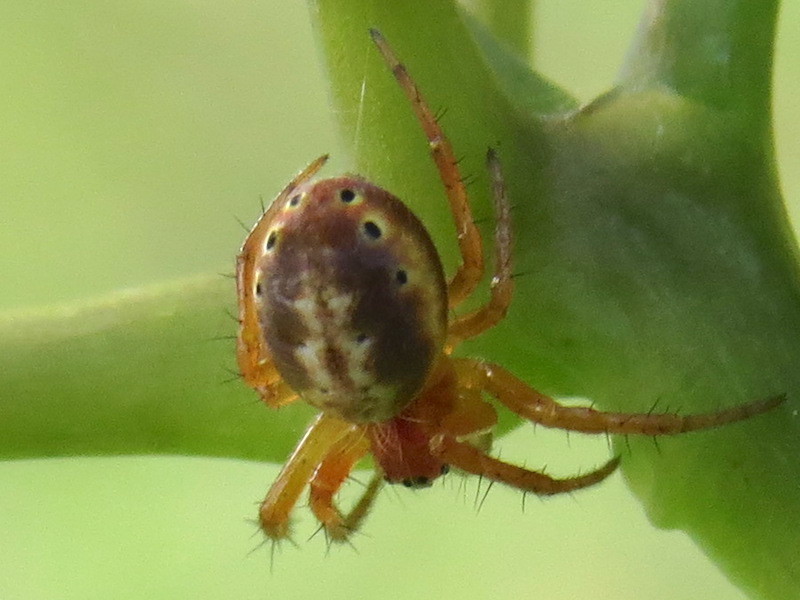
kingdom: Animalia
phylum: Arthropoda
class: Arachnida
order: Araneae
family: Araneidae
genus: Araniella
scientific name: Araniella displicata
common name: Sixspotted orb weaver
